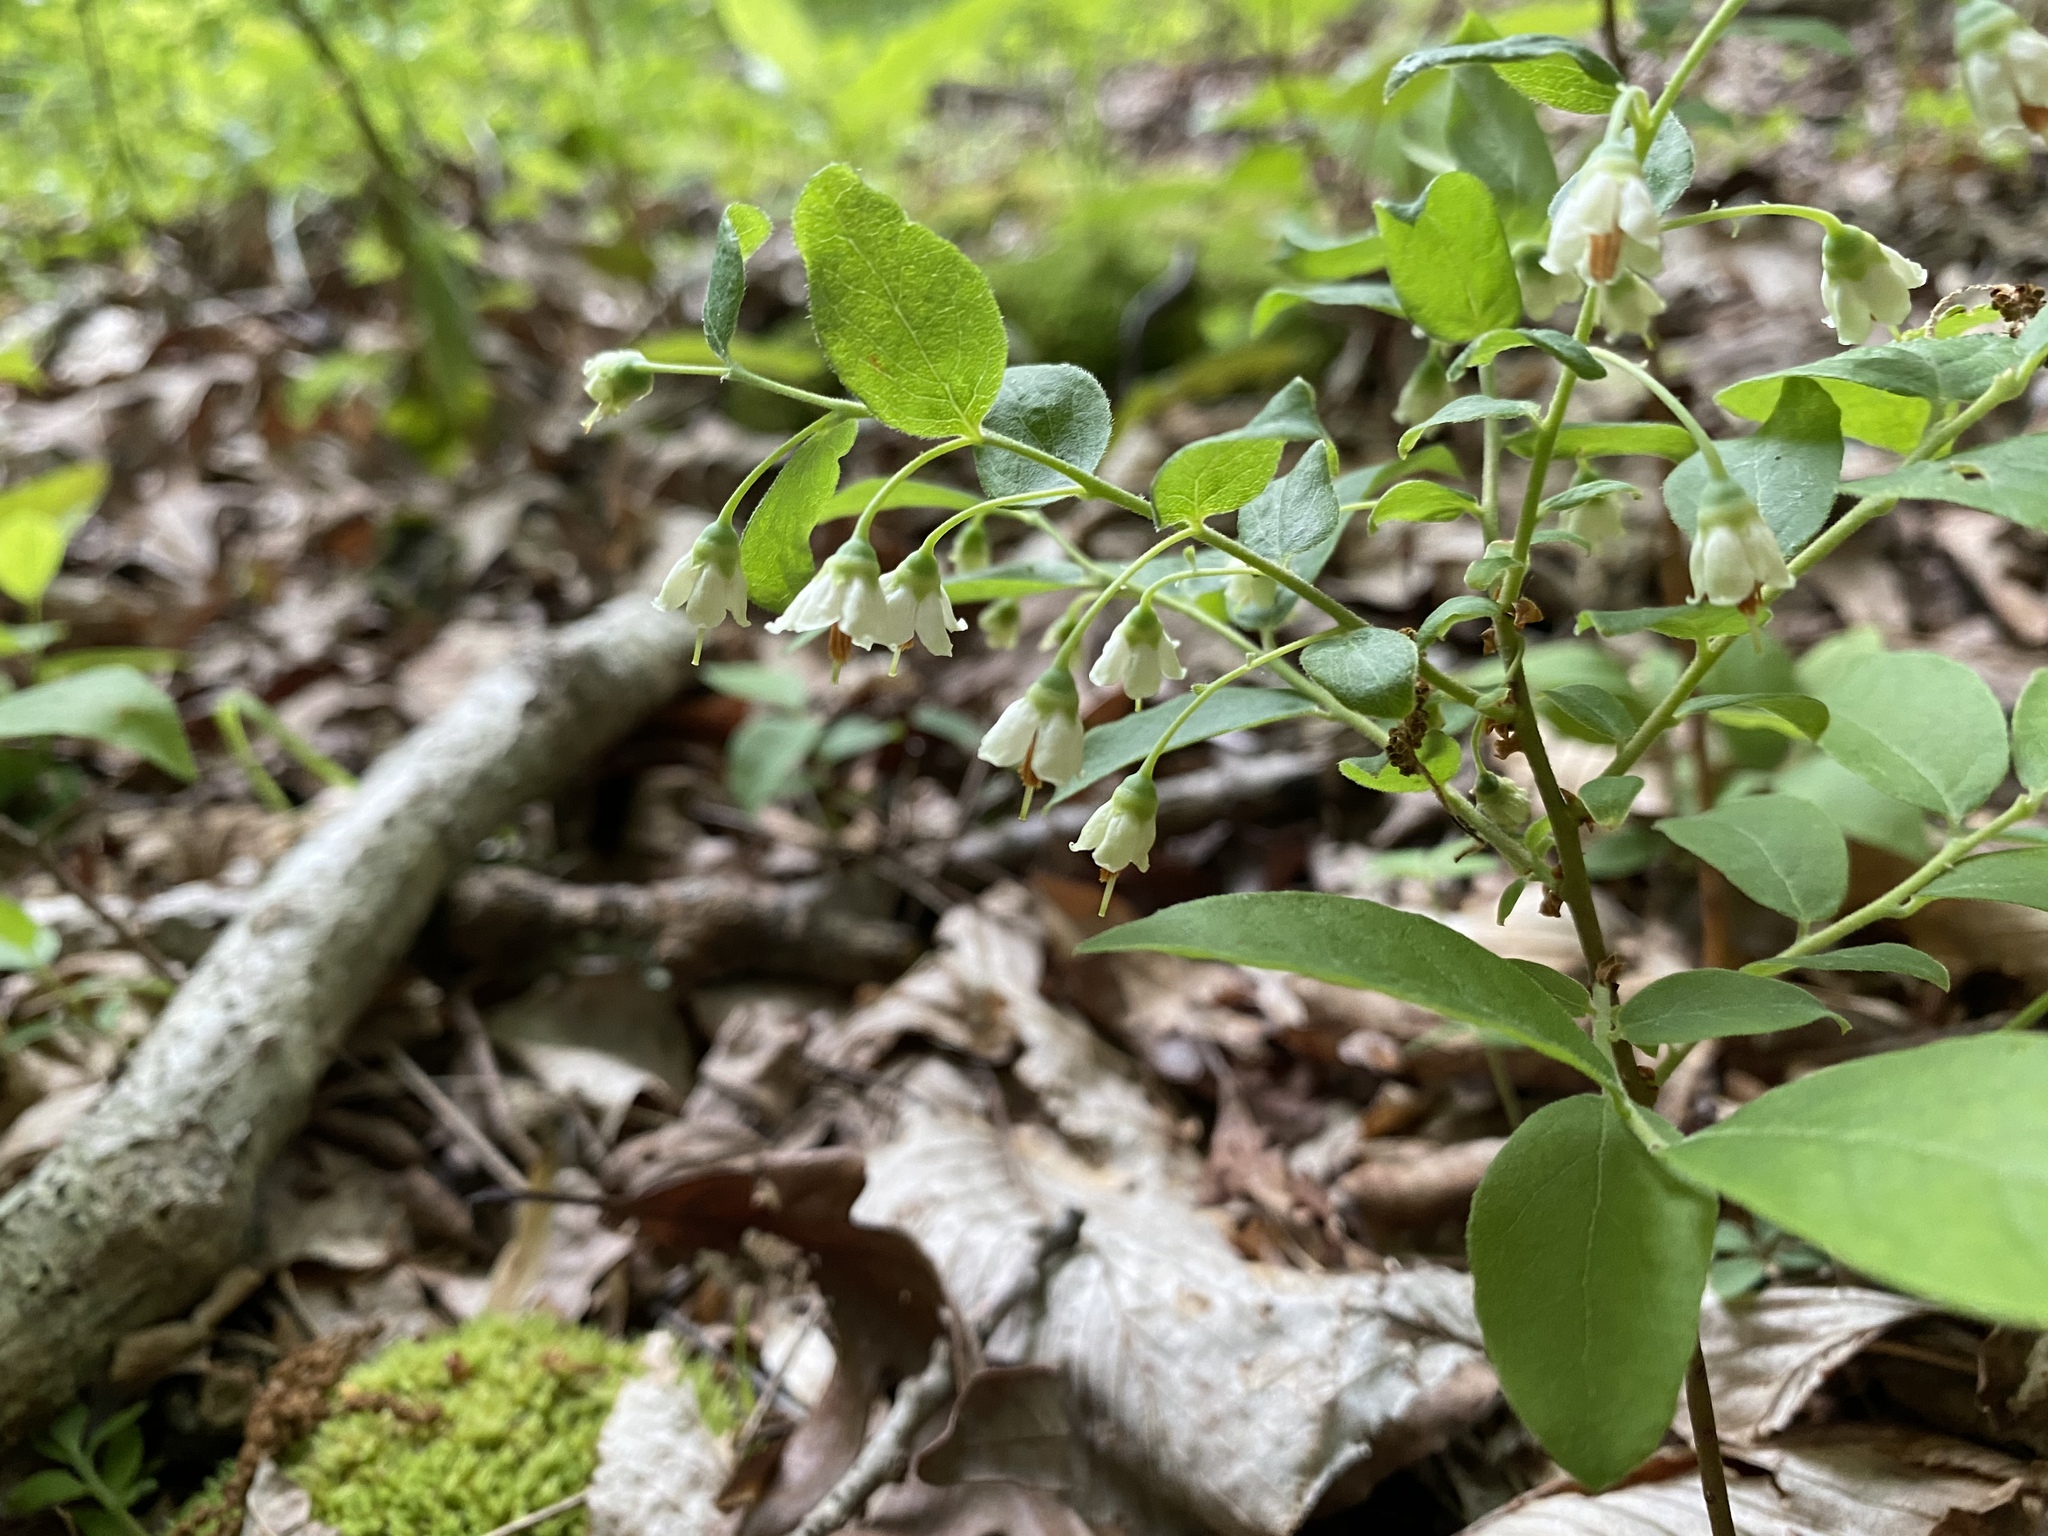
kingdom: Plantae
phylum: Tracheophyta
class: Magnoliopsida
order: Ericales
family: Ericaceae
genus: Vaccinium
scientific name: Vaccinium stamineum
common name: Deerberry
